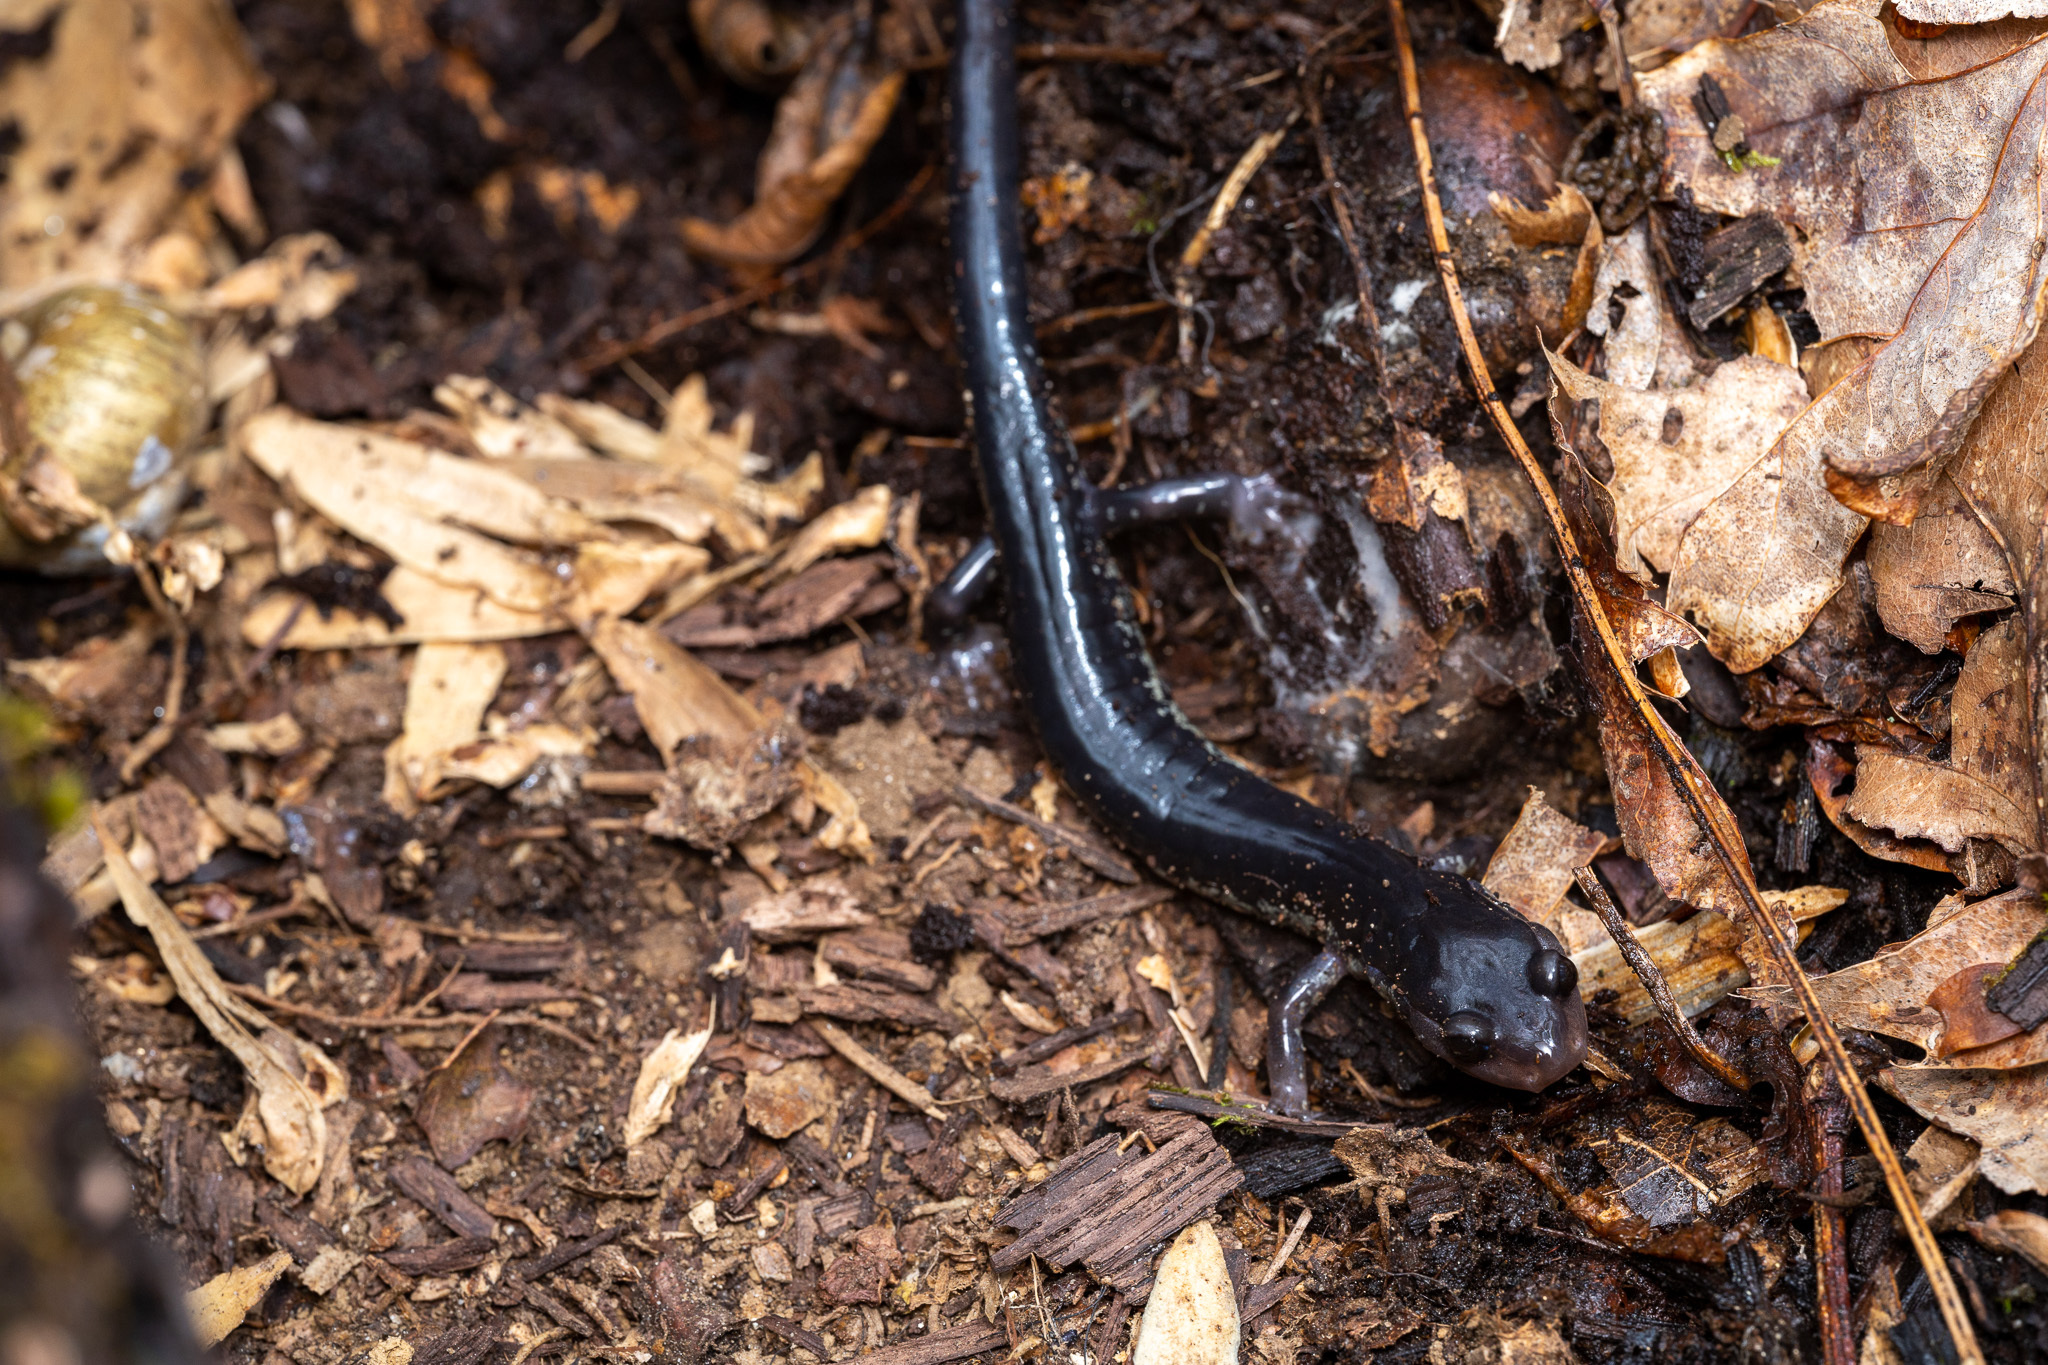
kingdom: Animalia
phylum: Chordata
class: Amphibia
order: Caudata
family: Plethodontidae
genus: Plethodon
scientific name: Plethodon chattahoochee
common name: Chattahoochee slimy salamander
